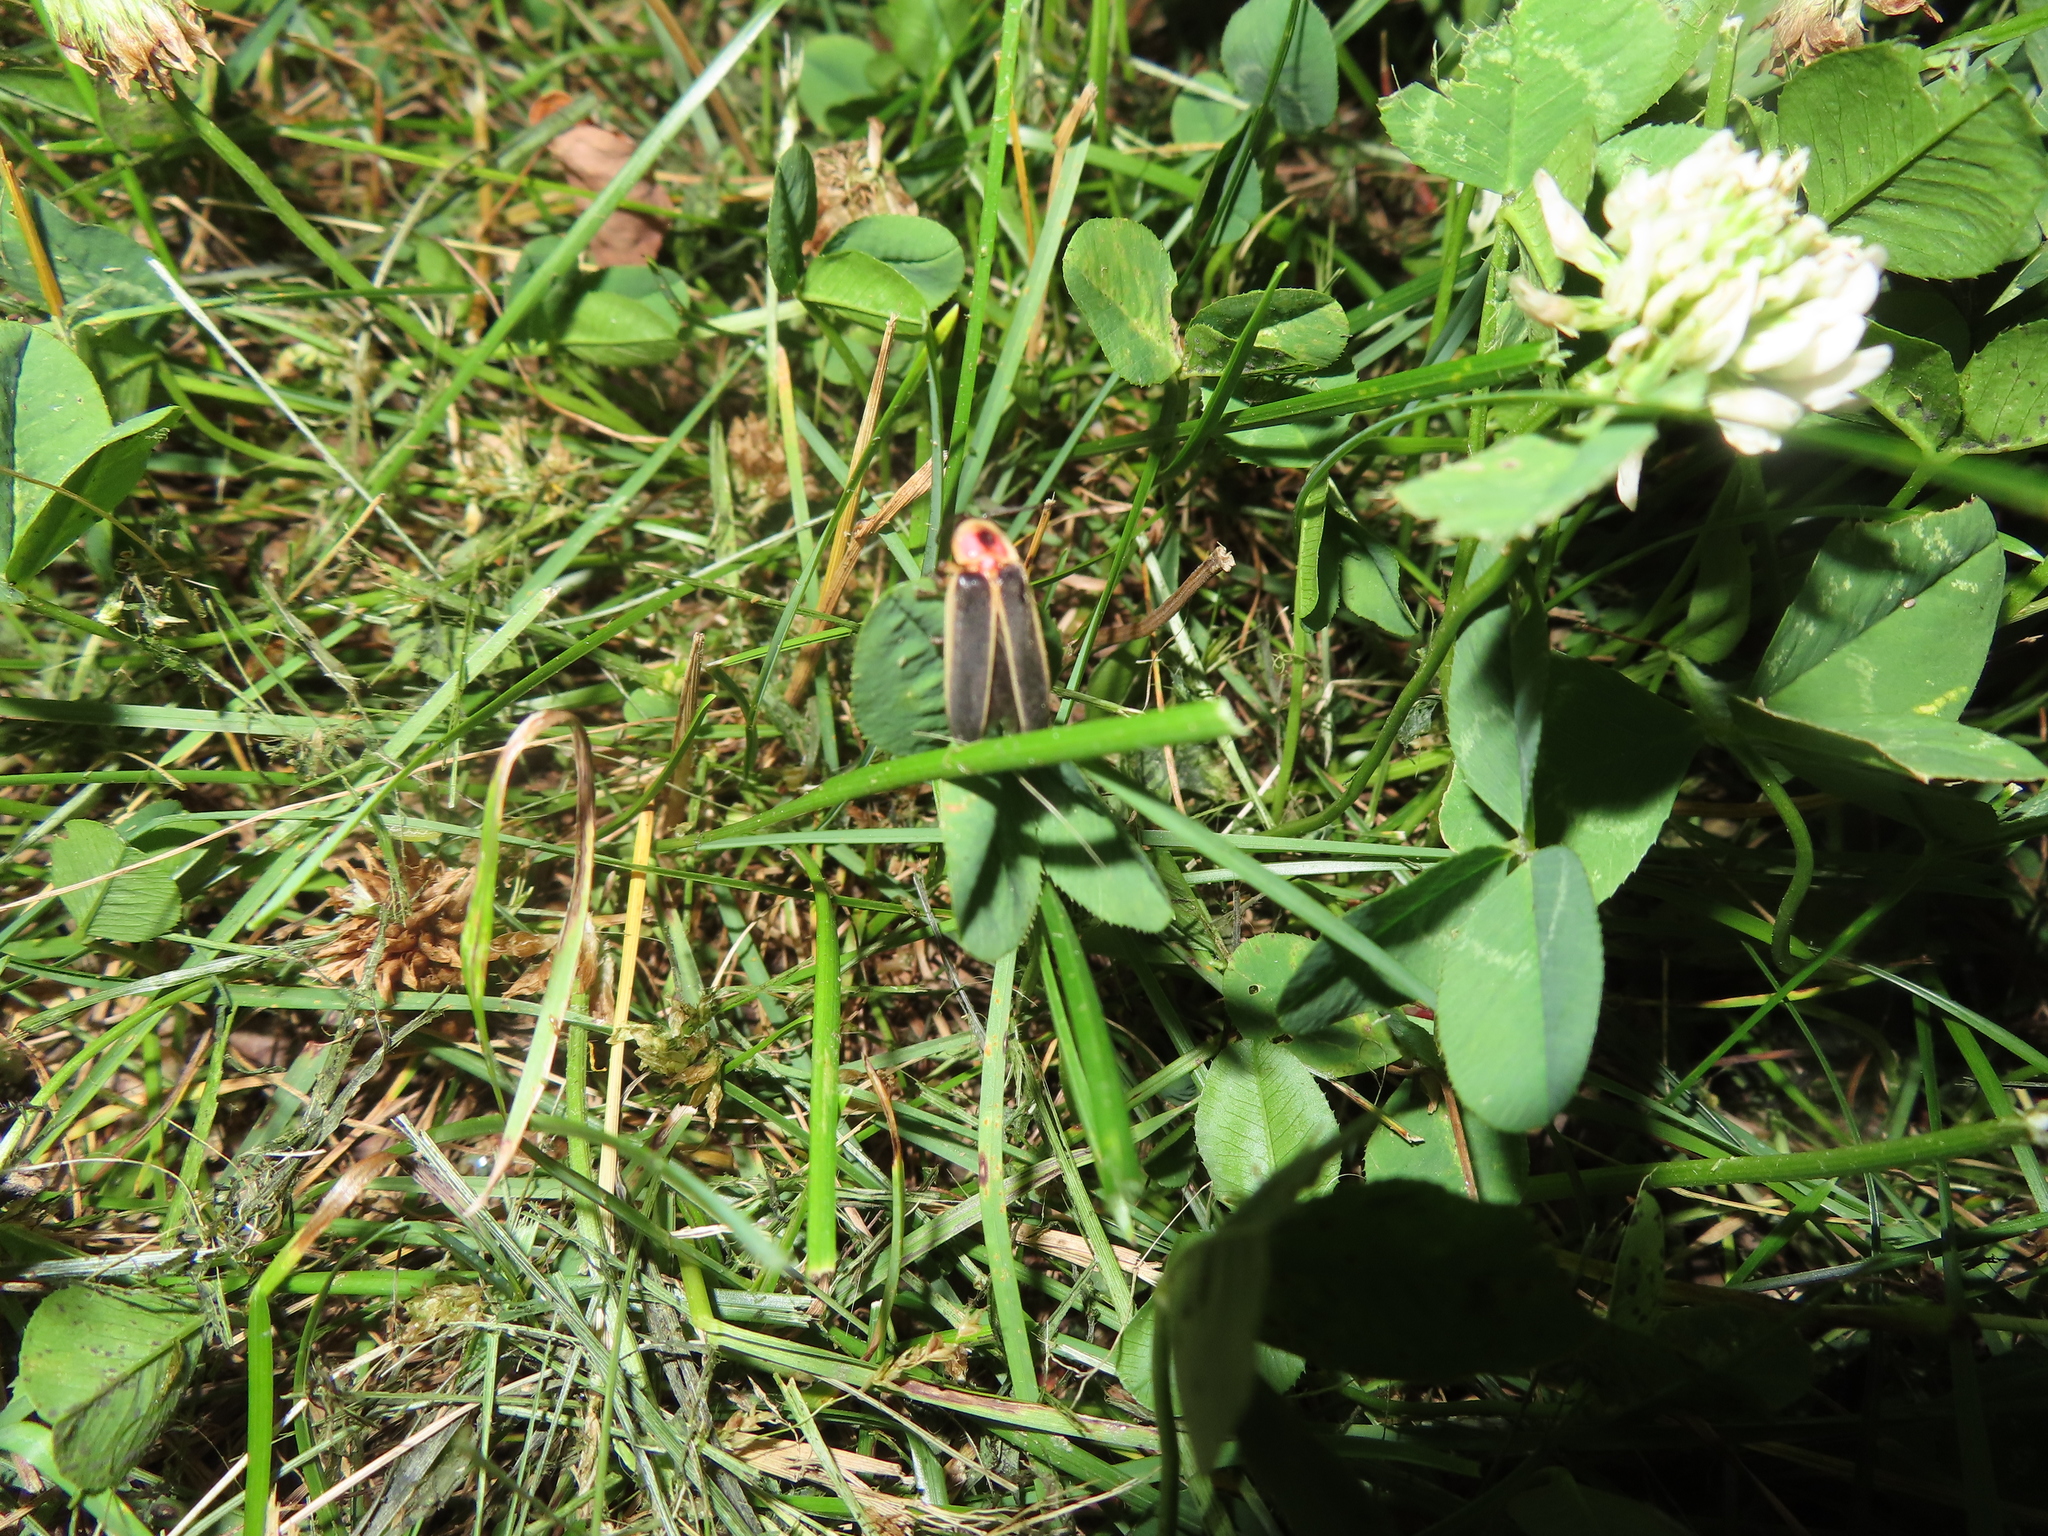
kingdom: Animalia
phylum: Arthropoda
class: Insecta
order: Coleoptera
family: Lampyridae
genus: Photinus
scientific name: Photinus pyralis
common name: Big dipper firefly
